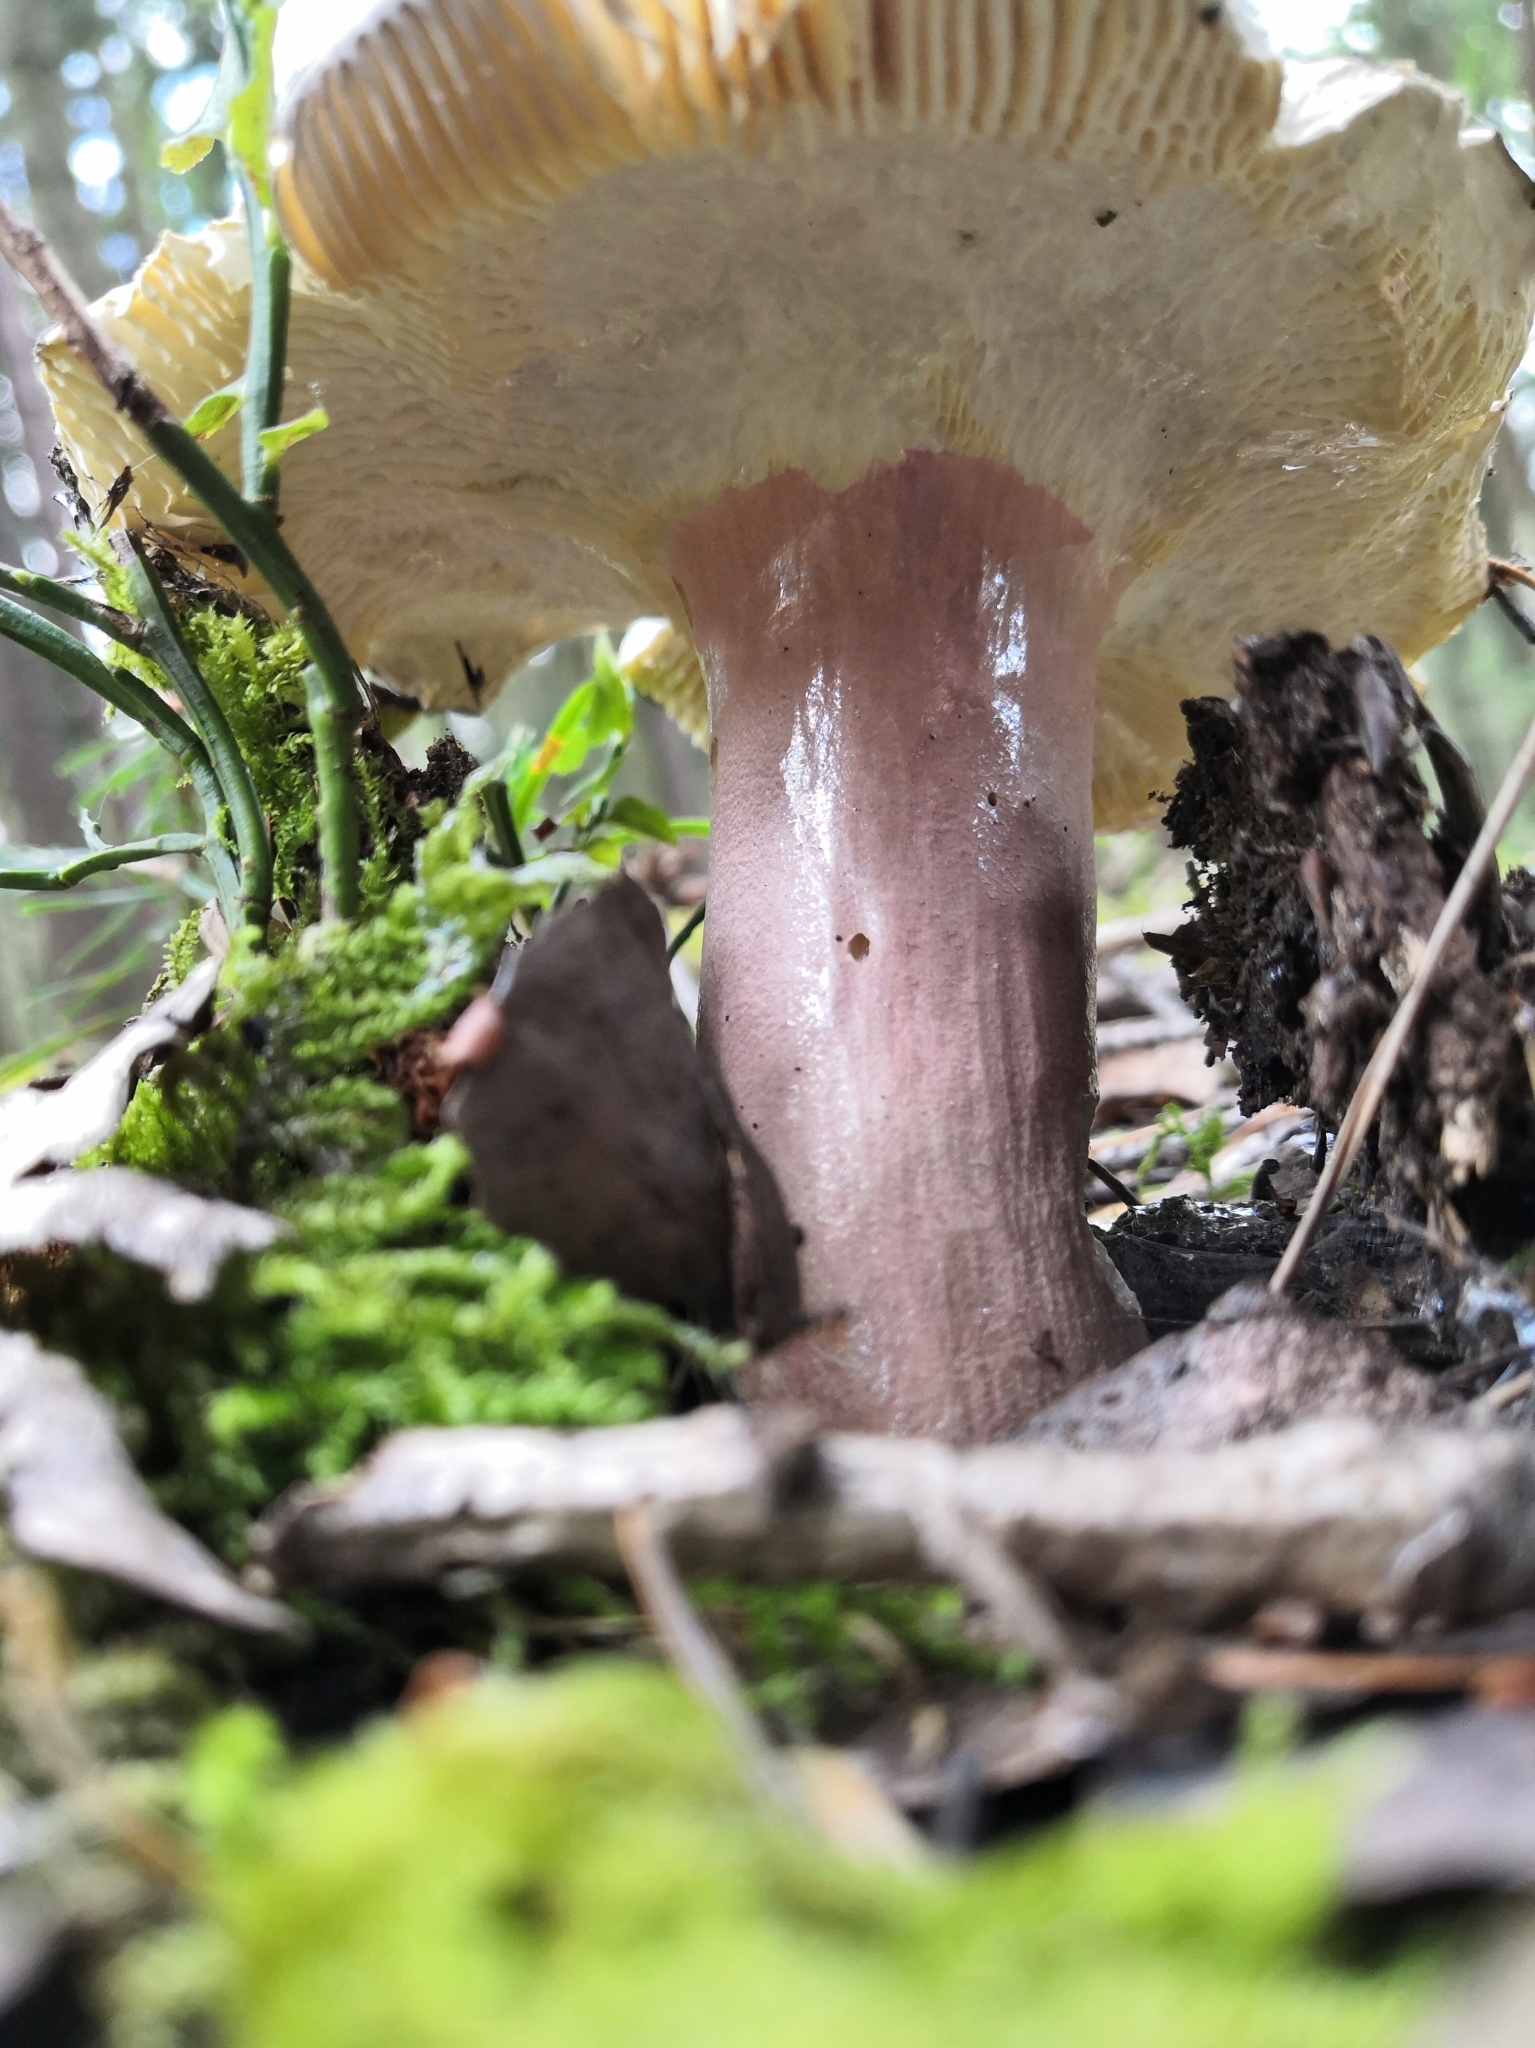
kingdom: Fungi
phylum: Basidiomycota
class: Agaricomycetes
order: Russulales
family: Russulaceae
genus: Russula
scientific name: Russula olivacea
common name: Olive brittlegill
